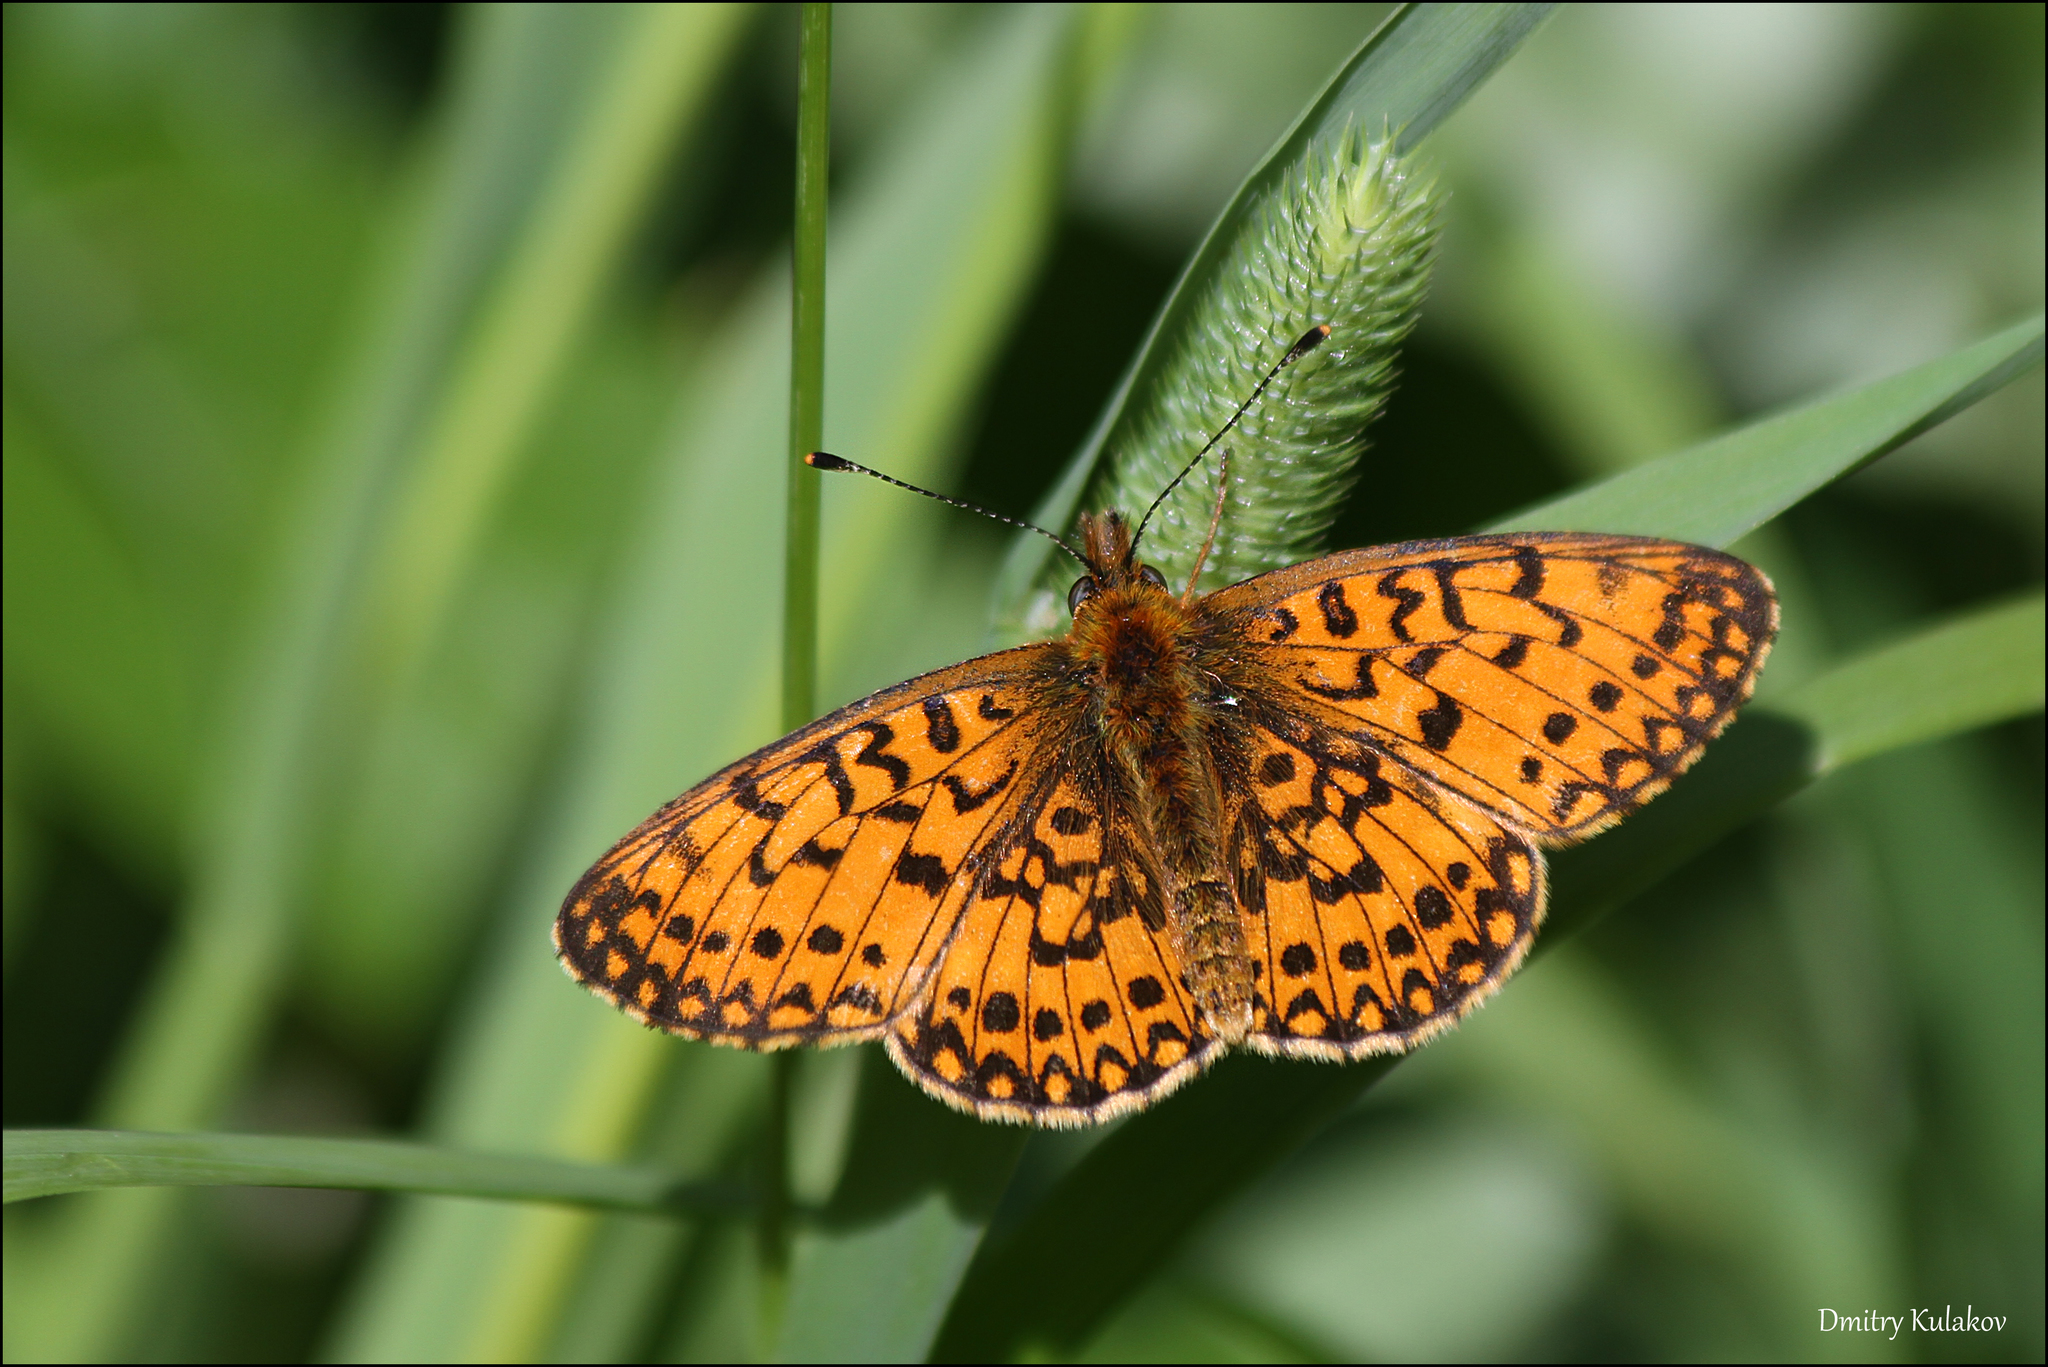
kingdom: Animalia
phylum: Arthropoda
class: Insecta
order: Lepidoptera
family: Nymphalidae
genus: Boloria
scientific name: Boloria selene
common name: Small pearl-bordered fritillary
